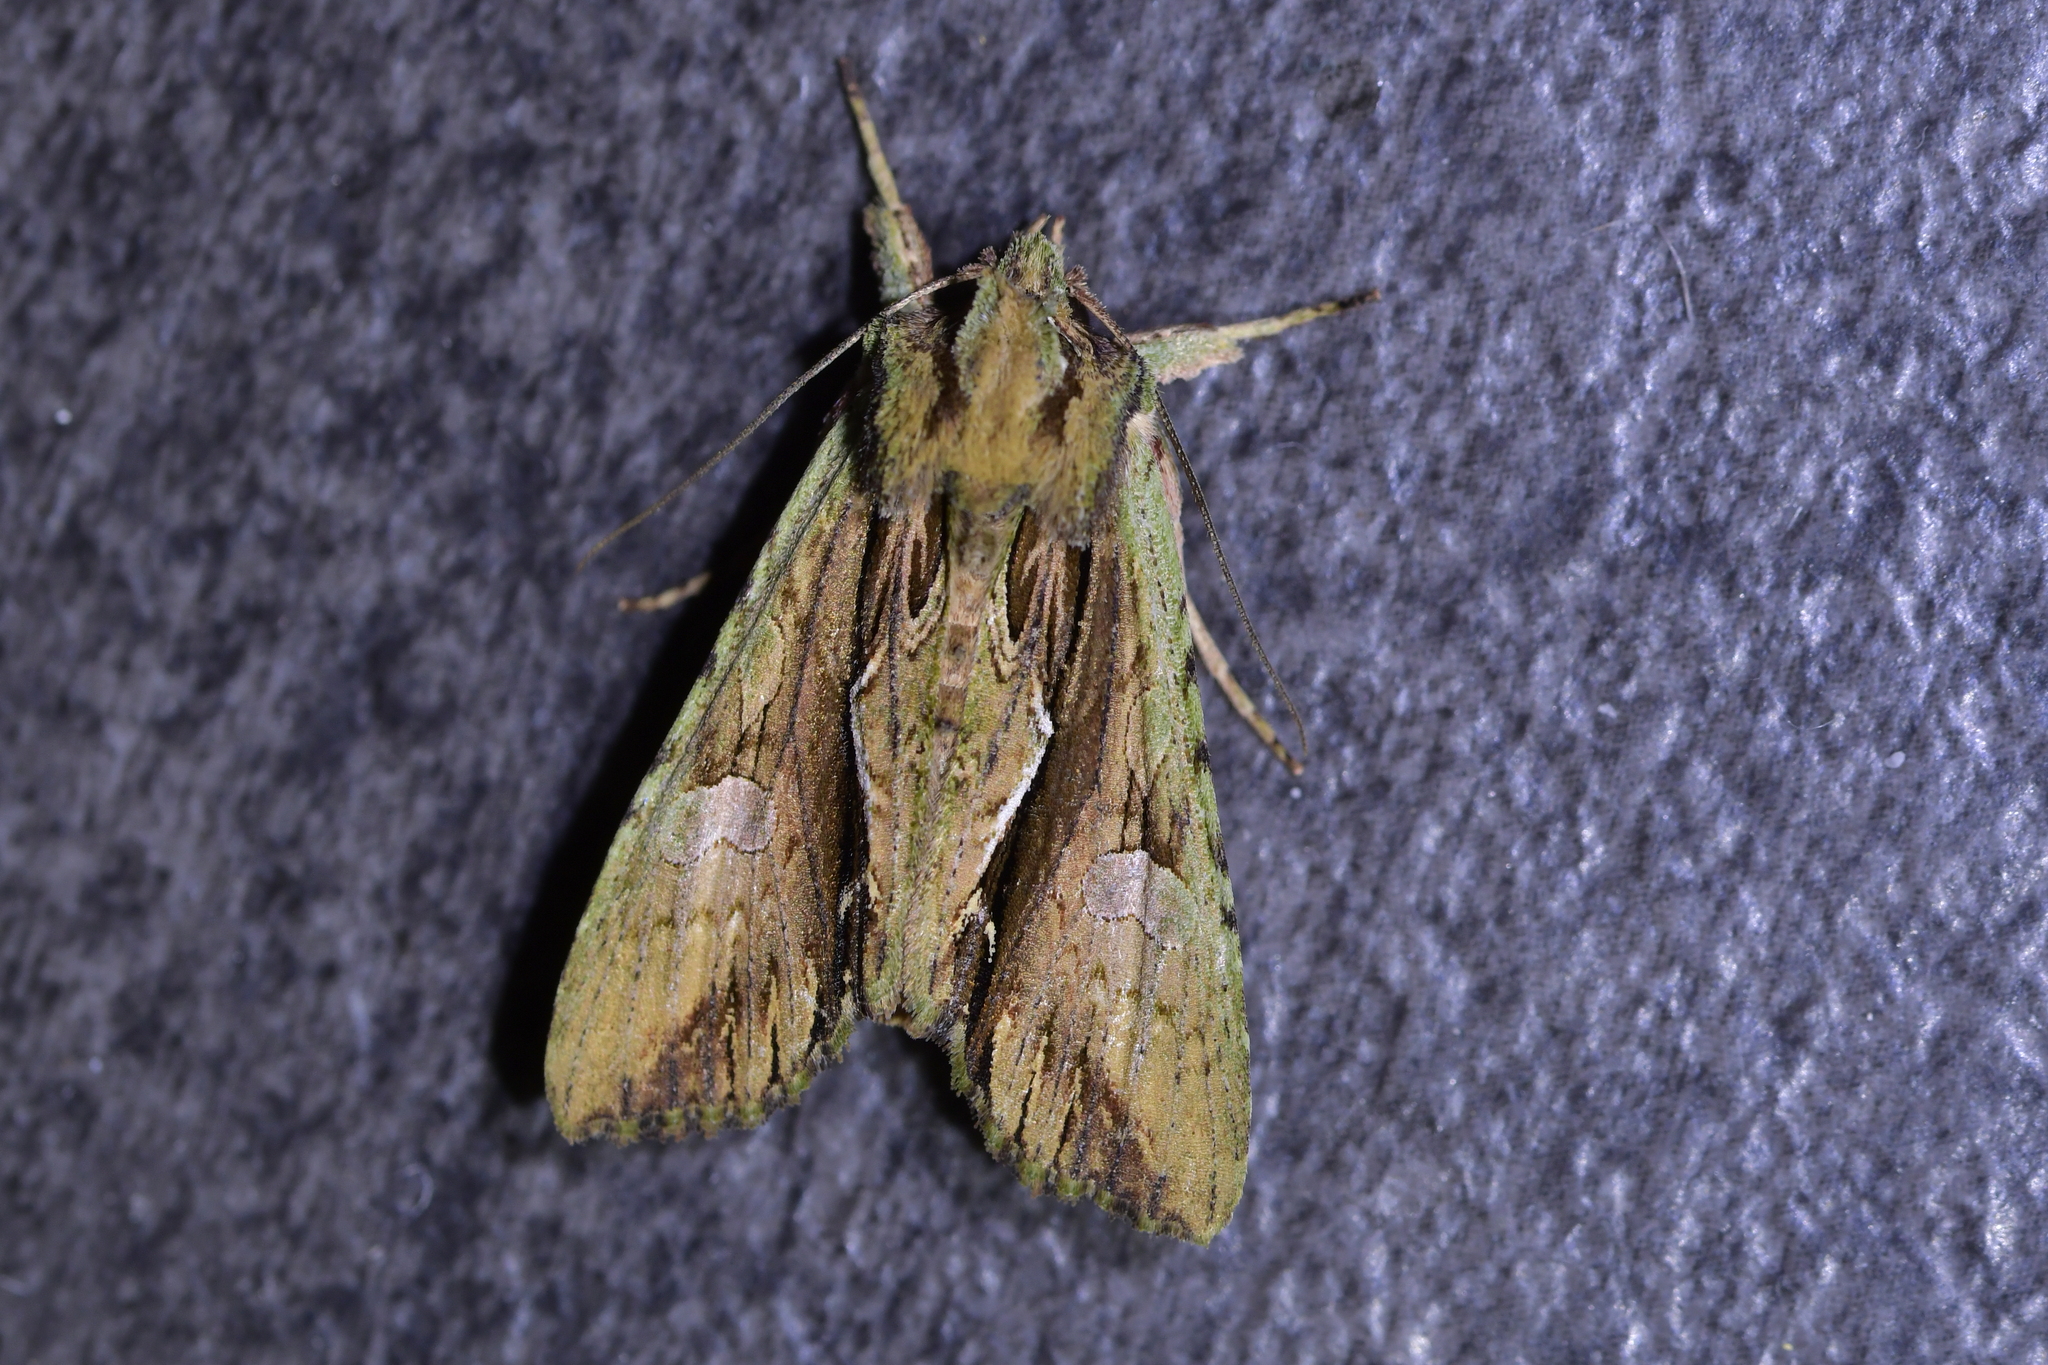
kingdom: Animalia
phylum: Arthropoda
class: Insecta
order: Lepidoptera
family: Noctuidae
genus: Meterana
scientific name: Meterana decorata
